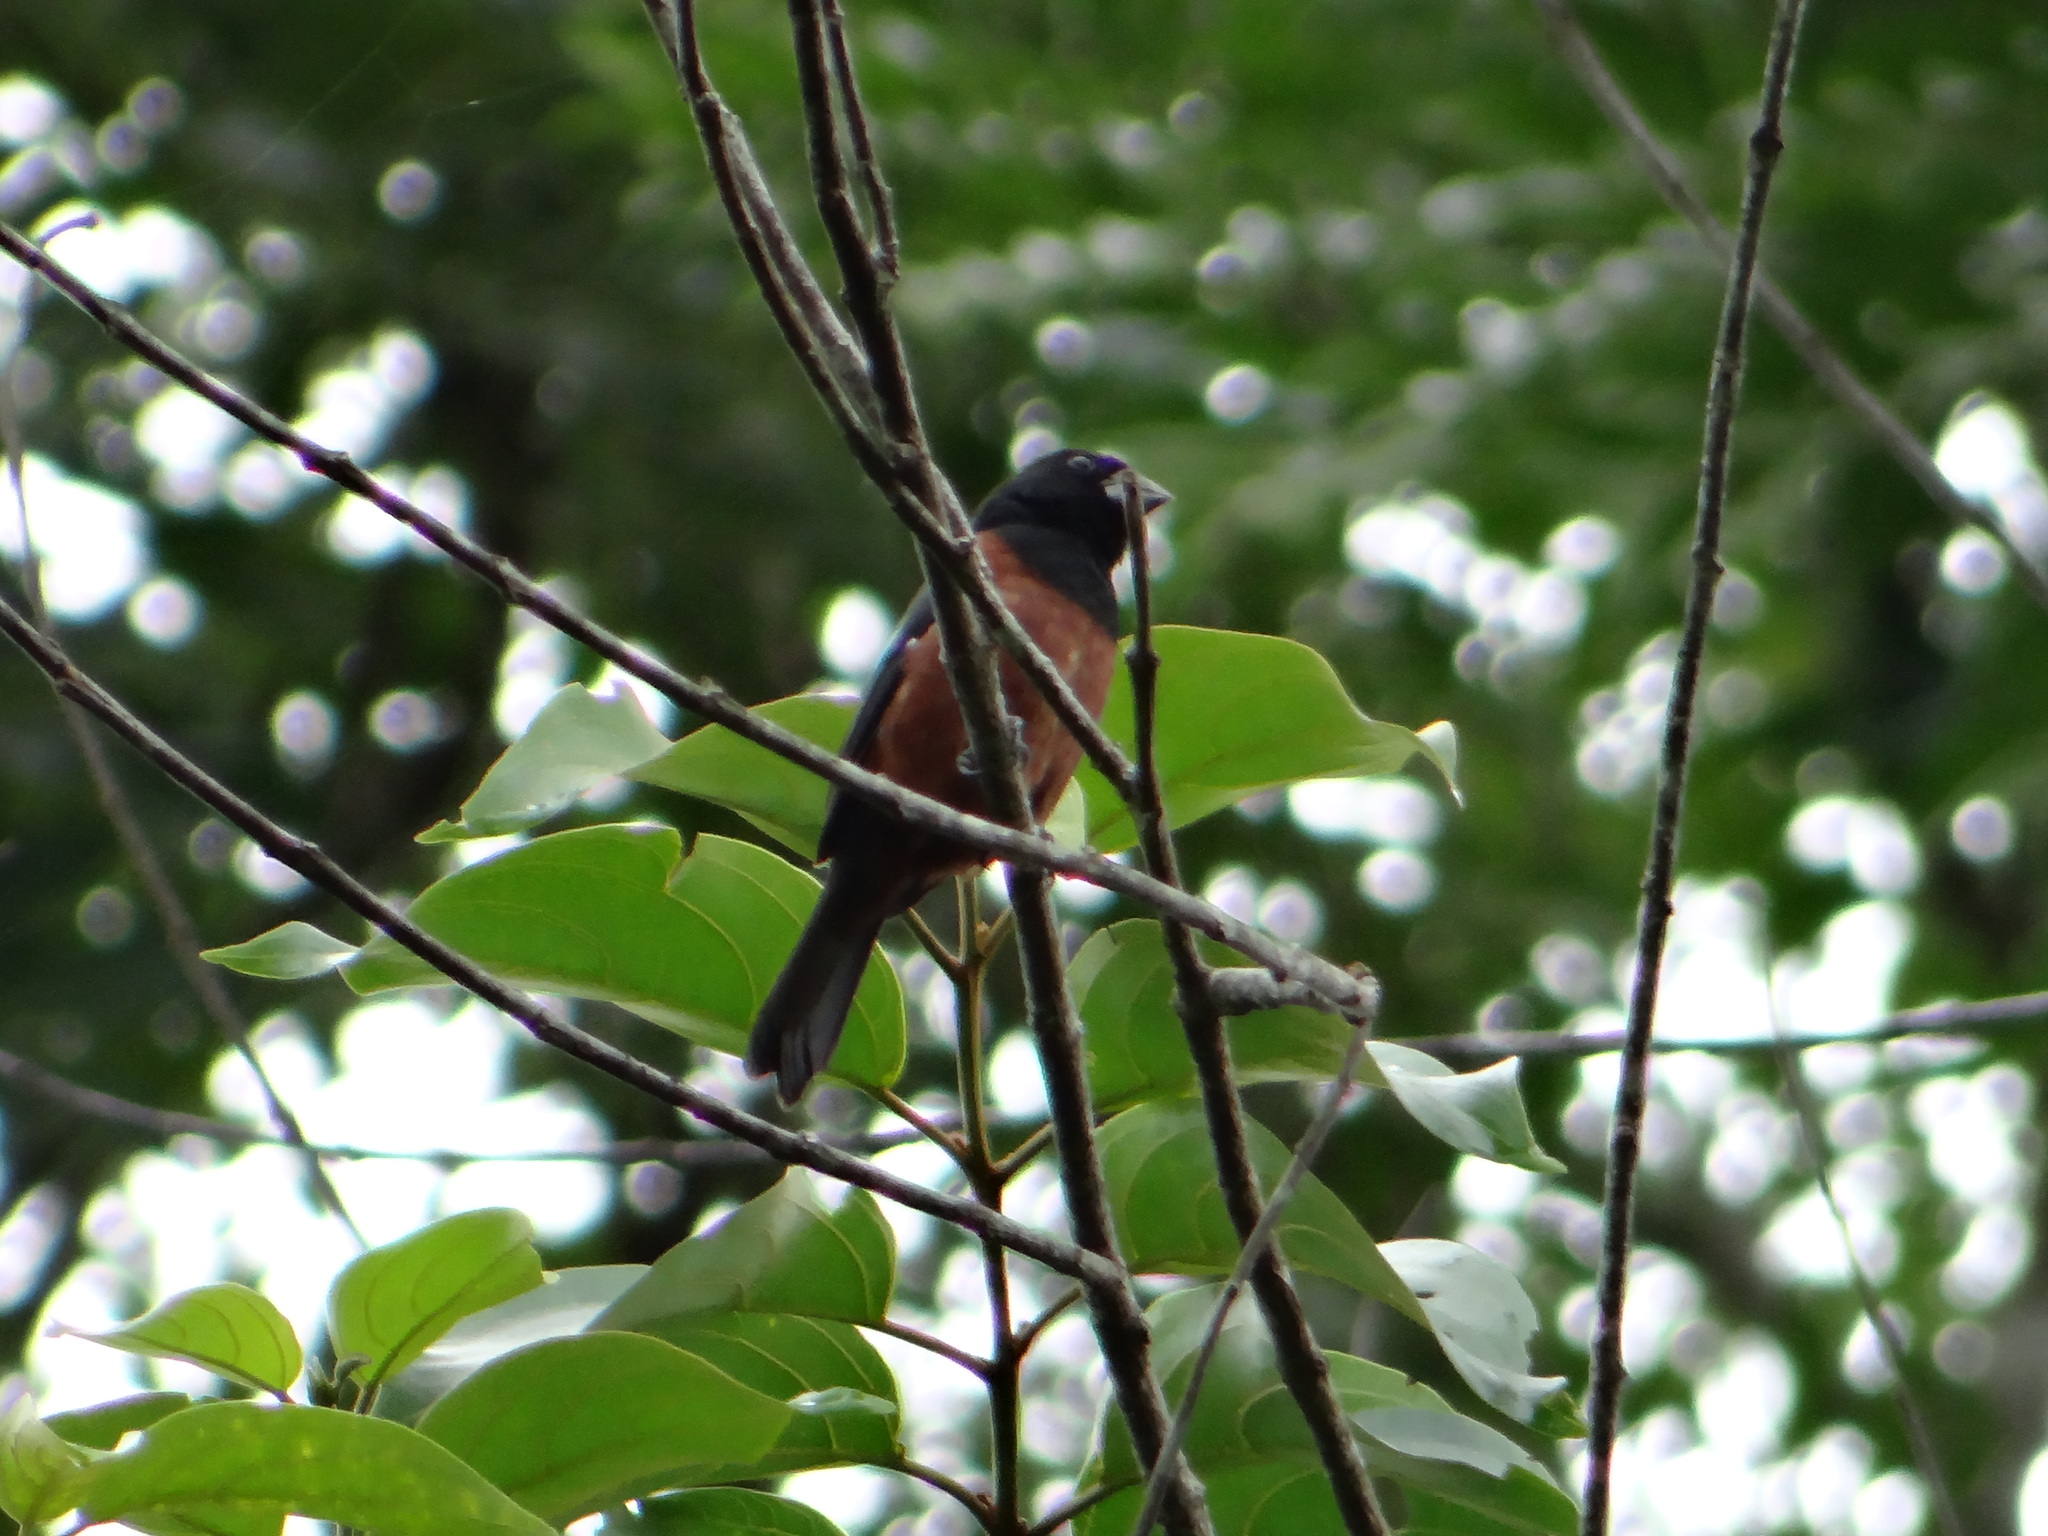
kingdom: Animalia
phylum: Chordata
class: Aves
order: Passeriformes
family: Thraupidae
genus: Sporophila
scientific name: Sporophila angolensis
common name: Chestnut-bellied seed-finch
